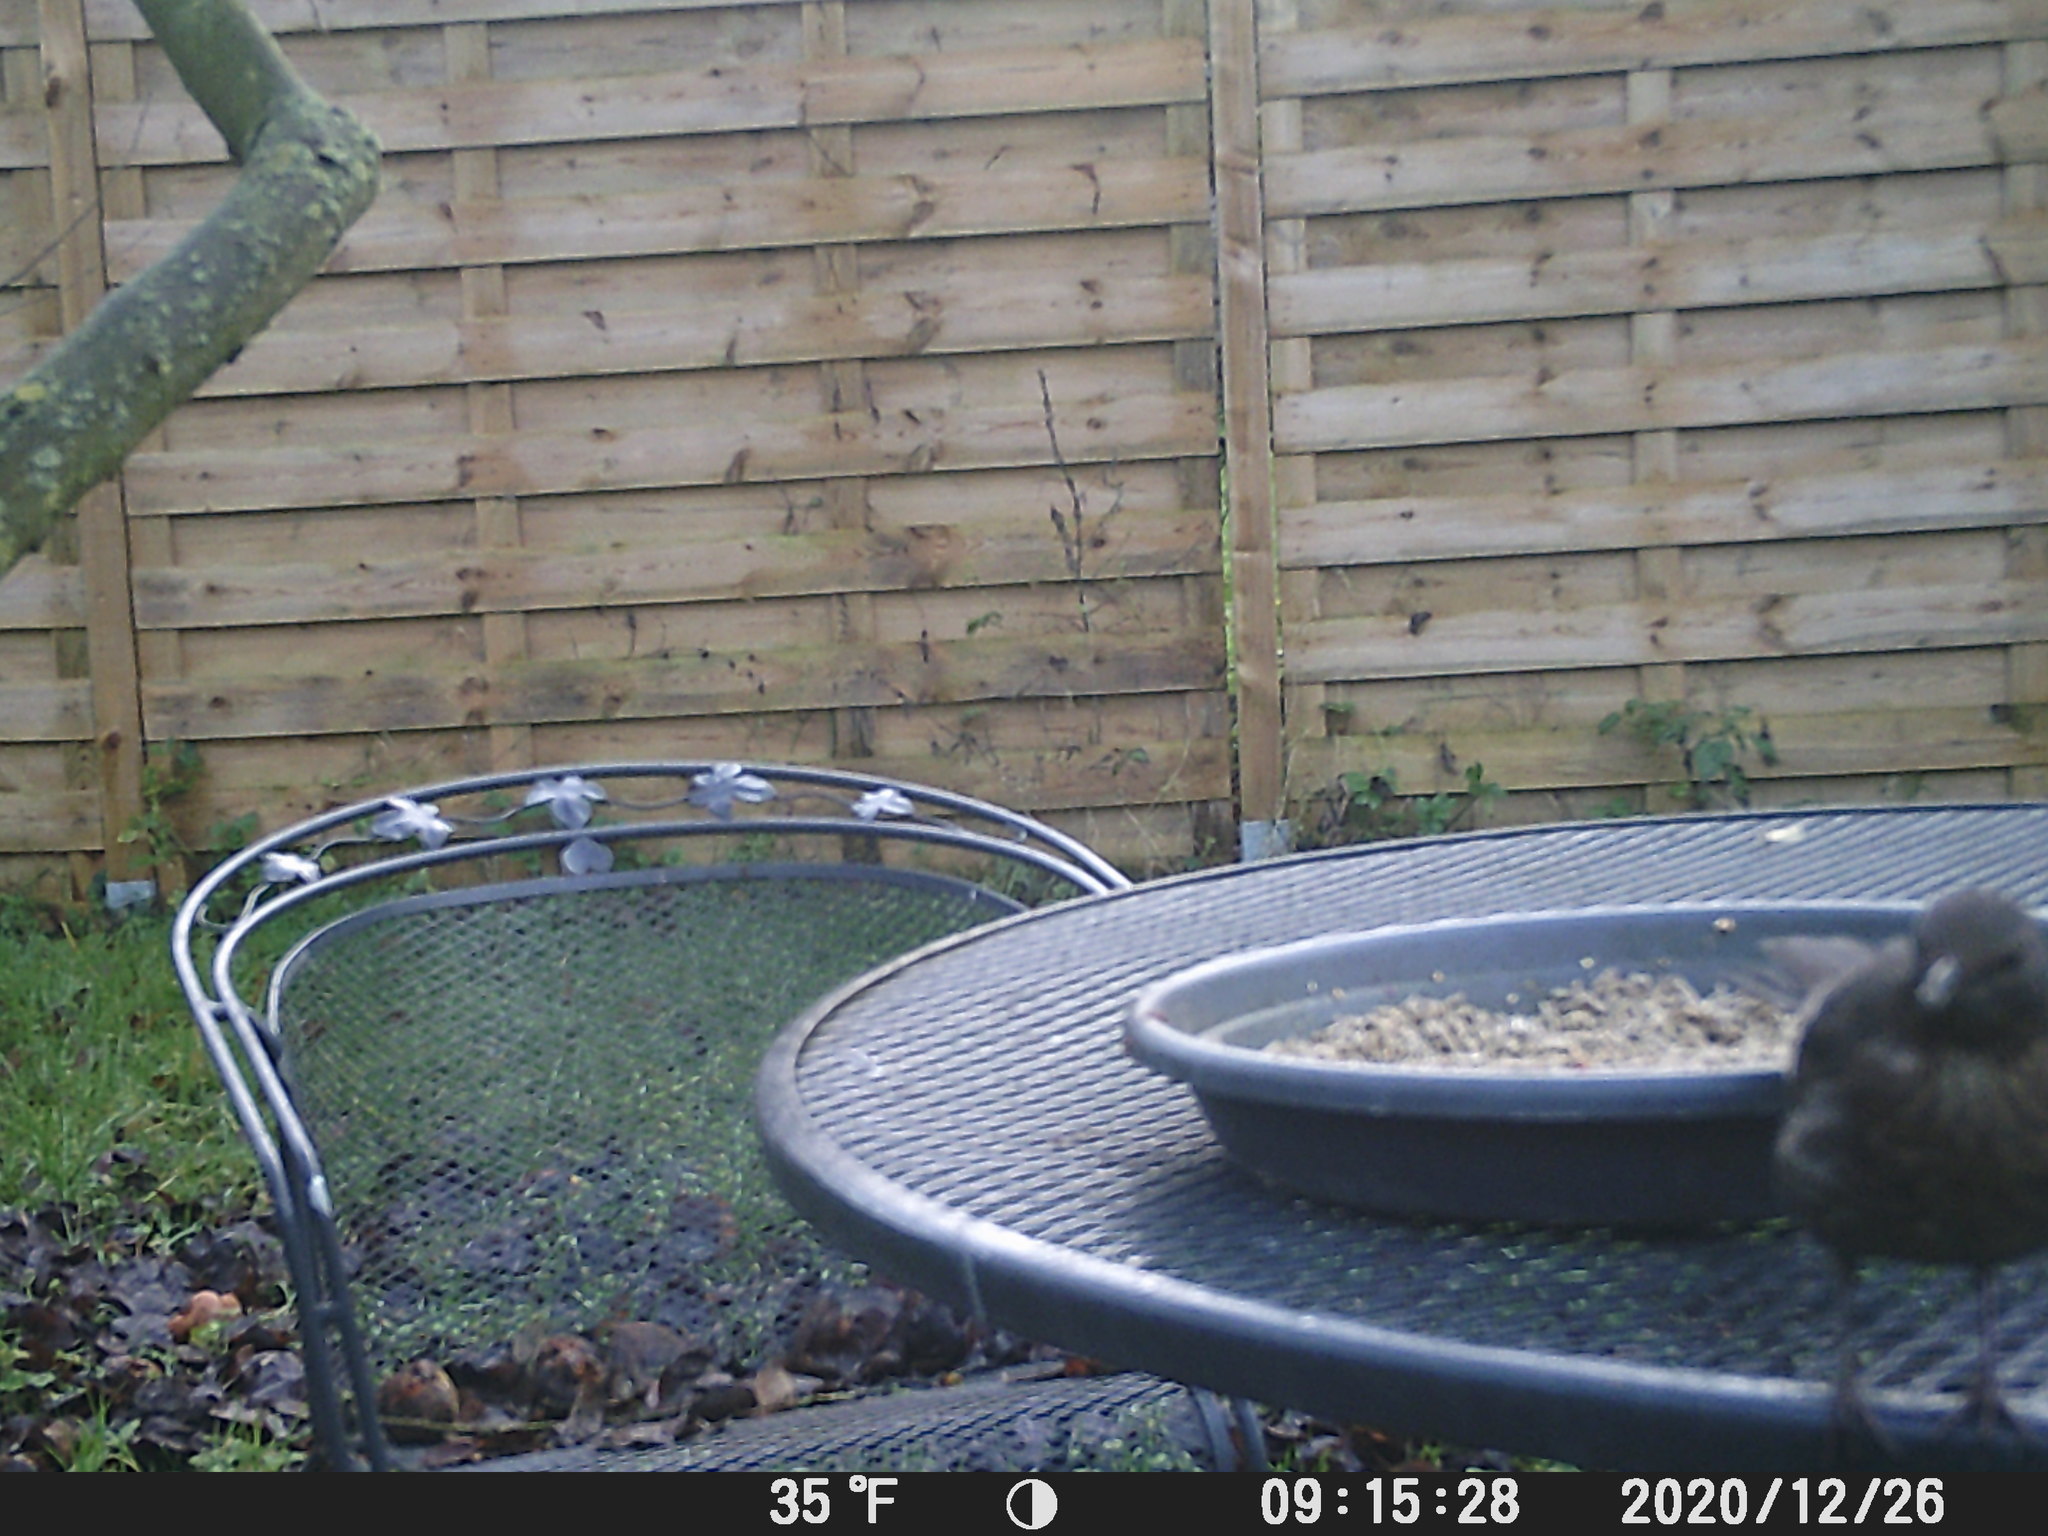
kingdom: Animalia
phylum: Chordata
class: Aves
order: Passeriformes
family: Turdidae
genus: Turdus
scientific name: Turdus merula
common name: Common blackbird
